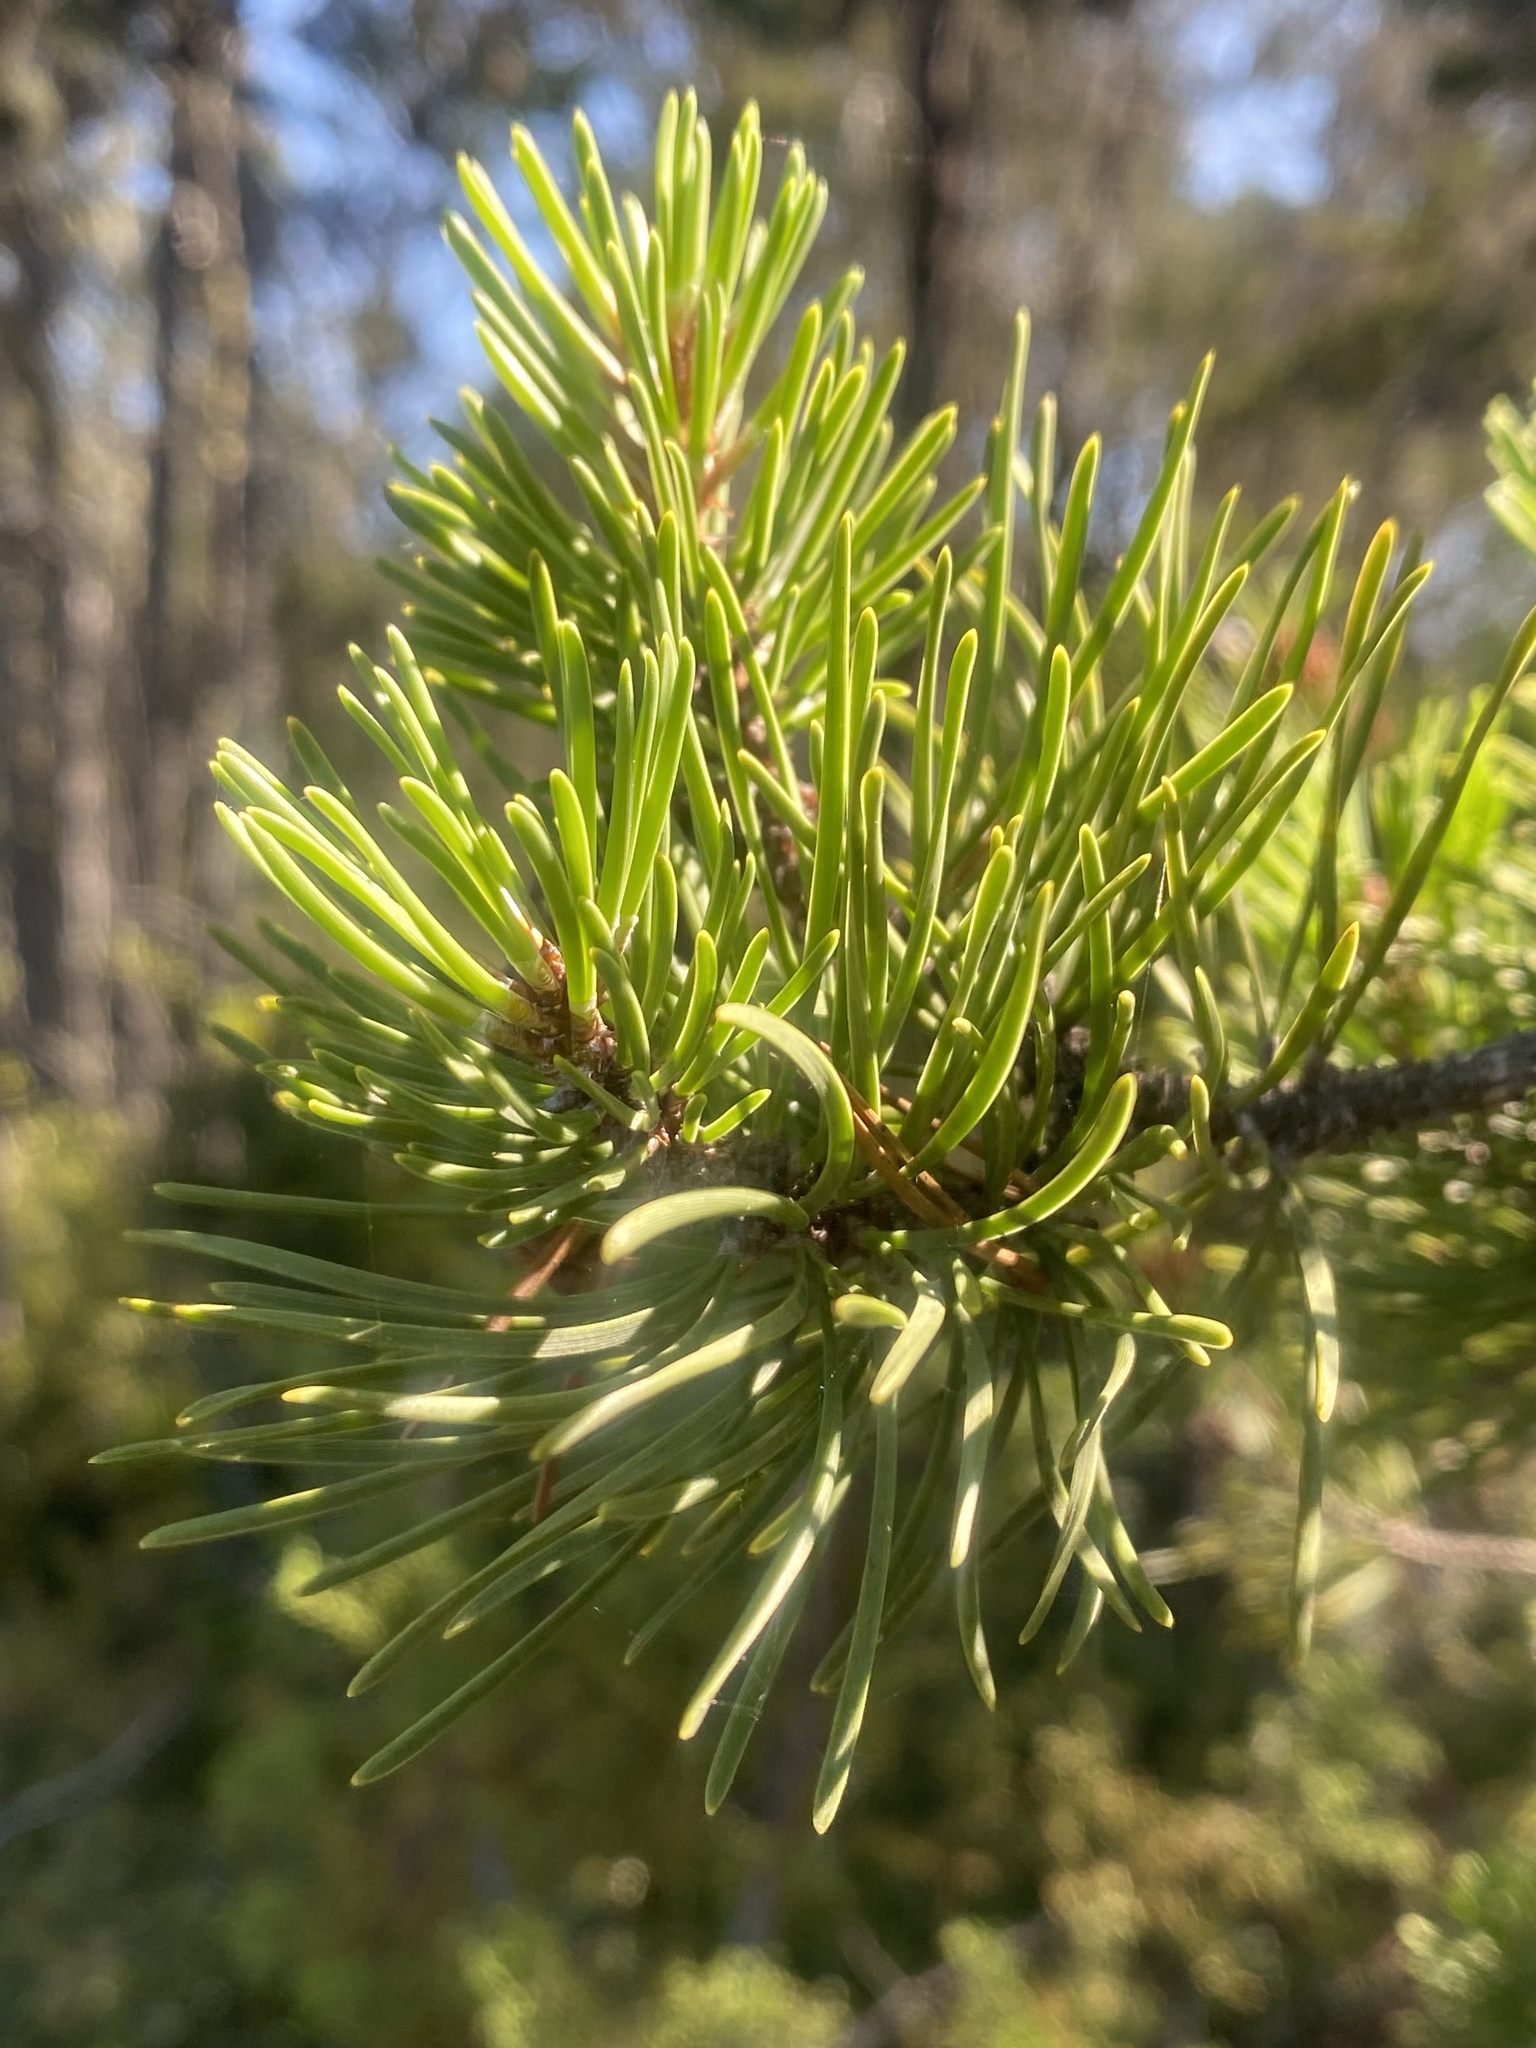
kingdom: Plantae
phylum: Tracheophyta
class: Pinopsida
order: Pinales
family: Pinaceae
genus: Pinus
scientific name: Pinus contorta
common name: Lodgepole pine
